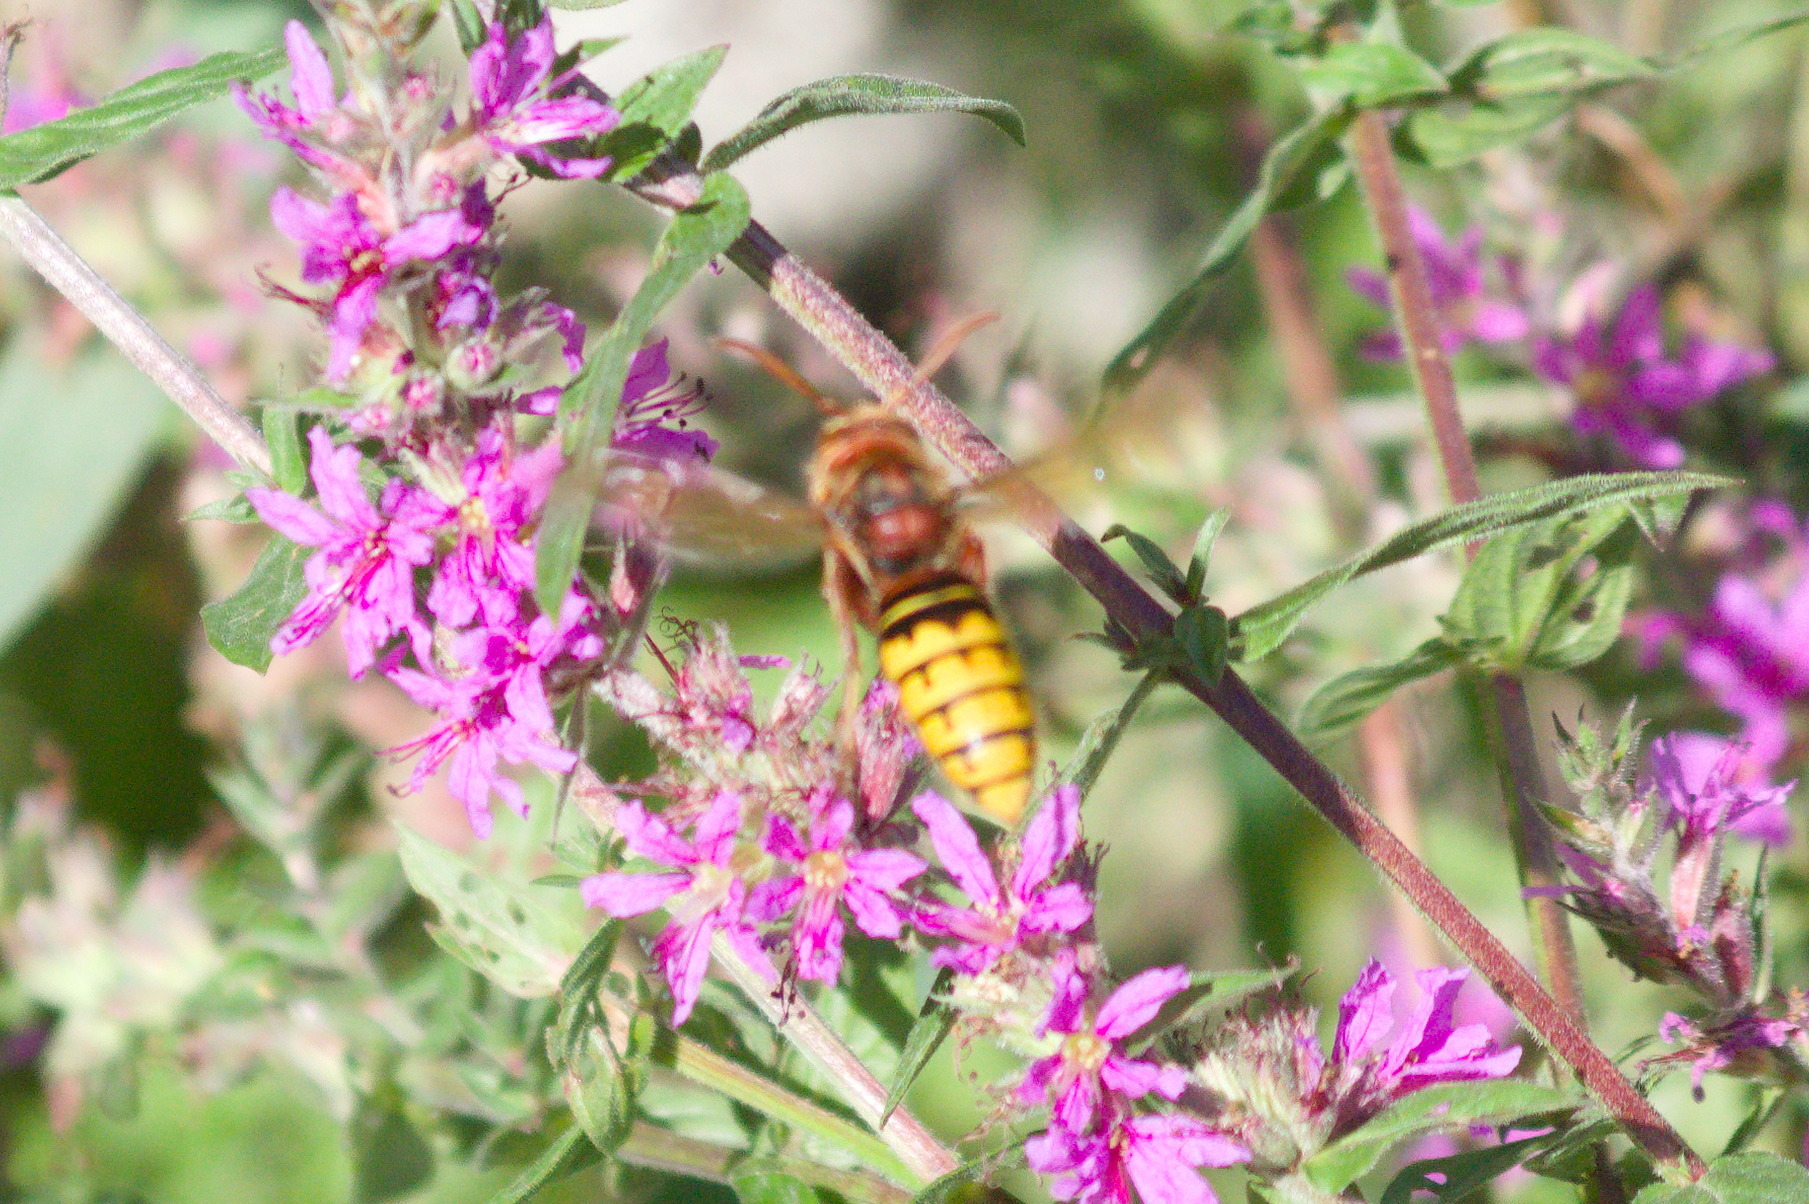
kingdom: Animalia
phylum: Arthropoda
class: Insecta
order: Hymenoptera
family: Vespidae
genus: Vespa
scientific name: Vespa crabro
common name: Hornet
